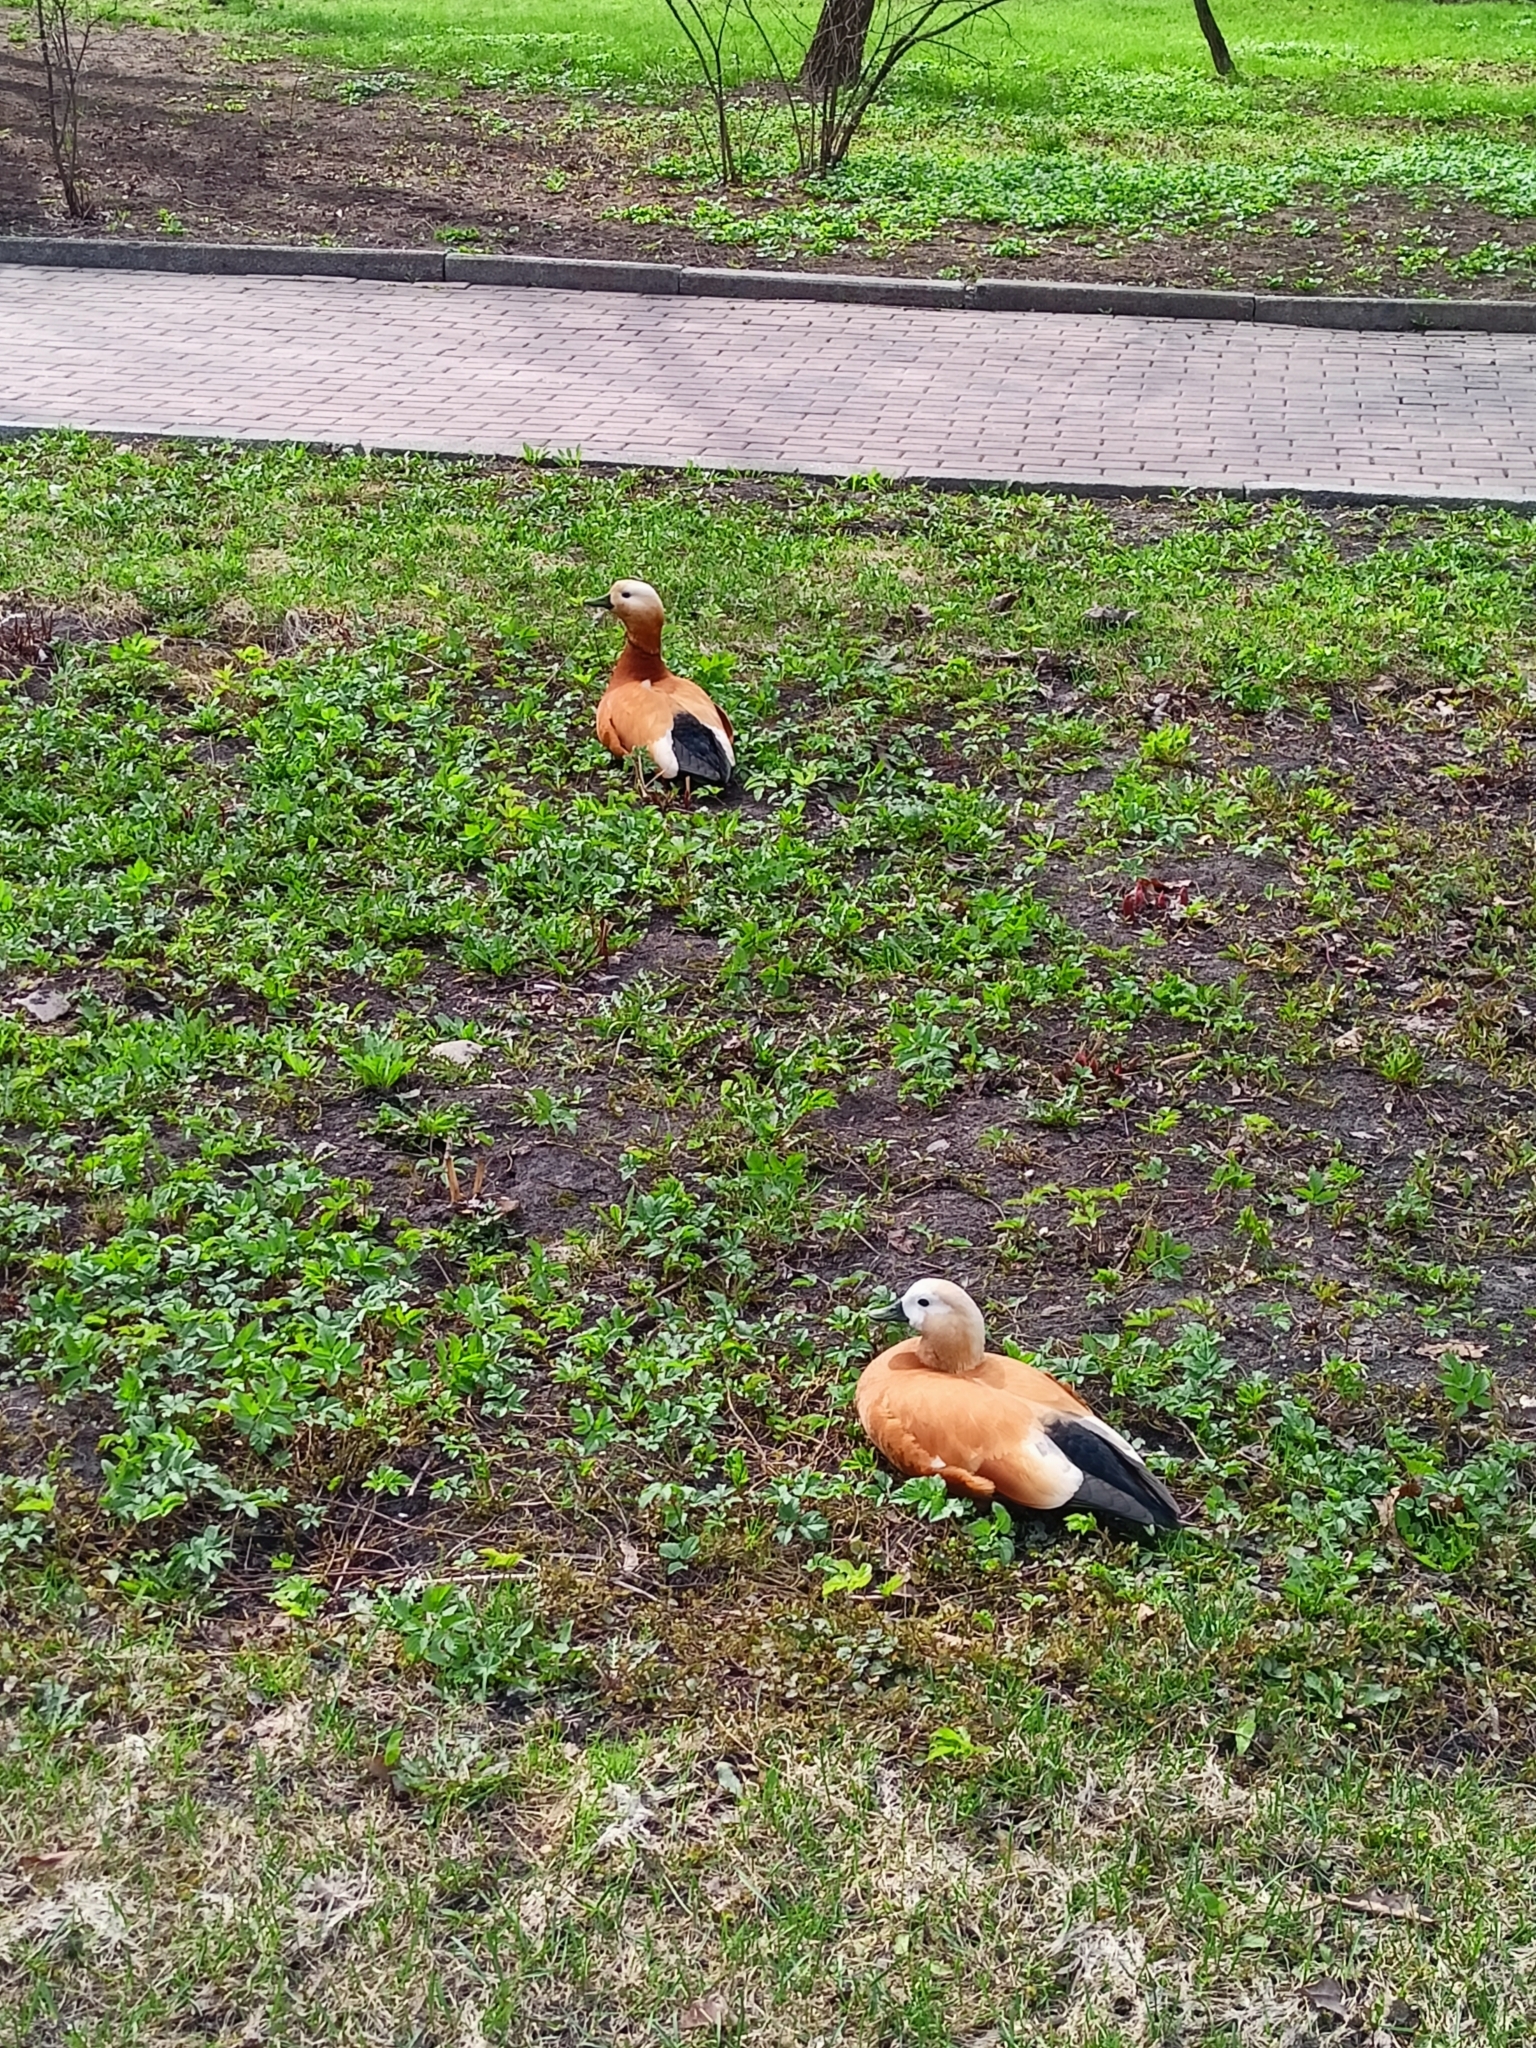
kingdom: Animalia
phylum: Chordata
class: Aves
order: Anseriformes
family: Anatidae
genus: Tadorna
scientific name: Tadorna ferruginea
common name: Ruddy shelduck
